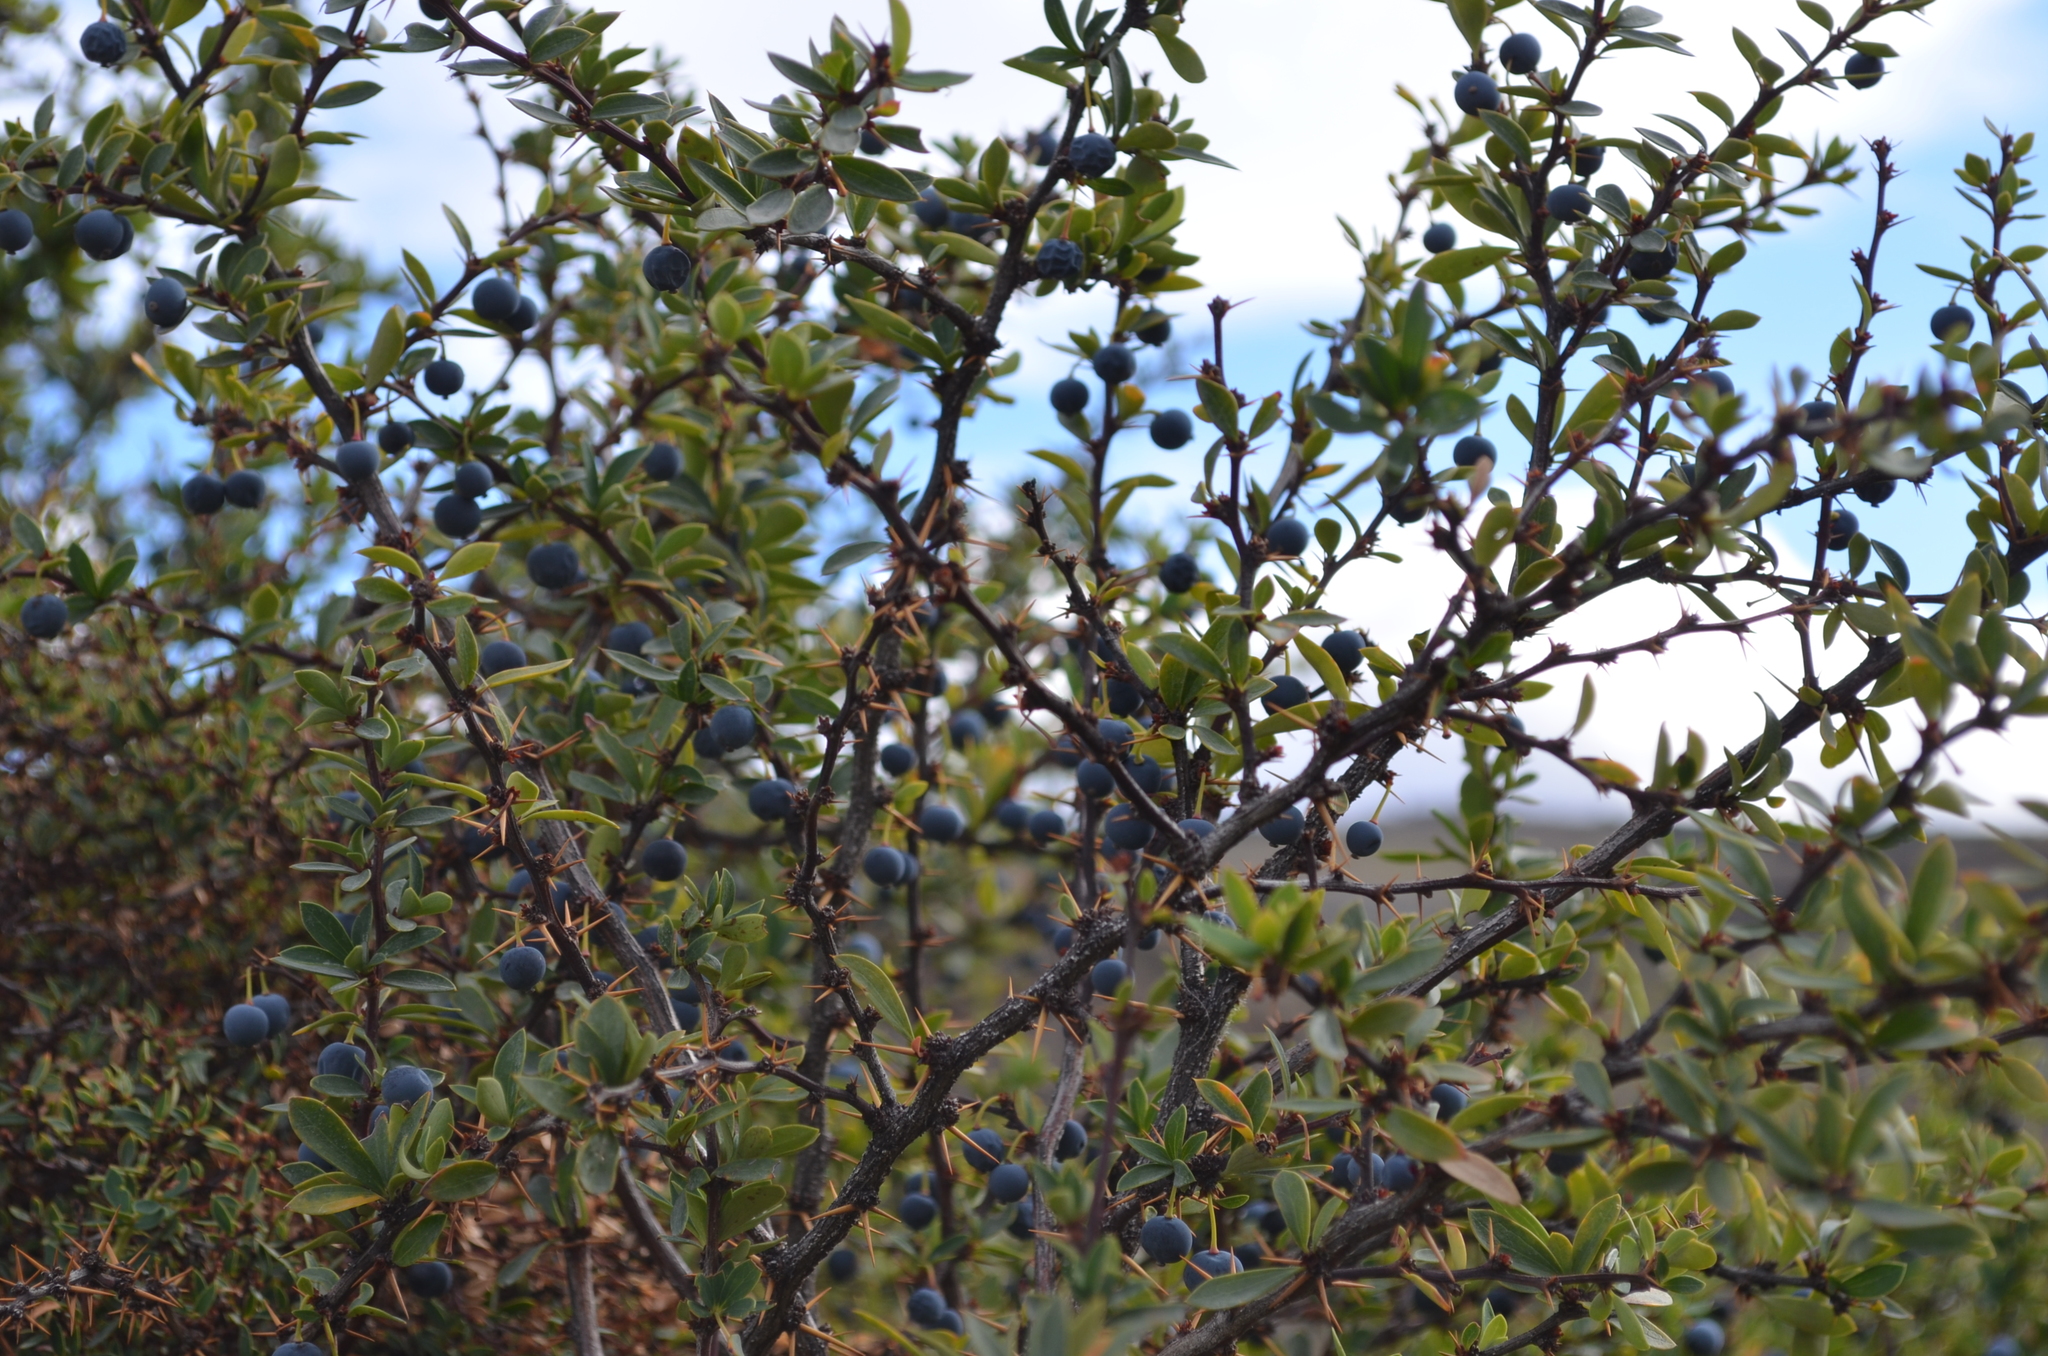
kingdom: Plantae
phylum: Tracheophyta
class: Magnoliopsida
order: Ranunculales
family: Berberidaceae
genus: Berberis
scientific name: Berberis microphylla
